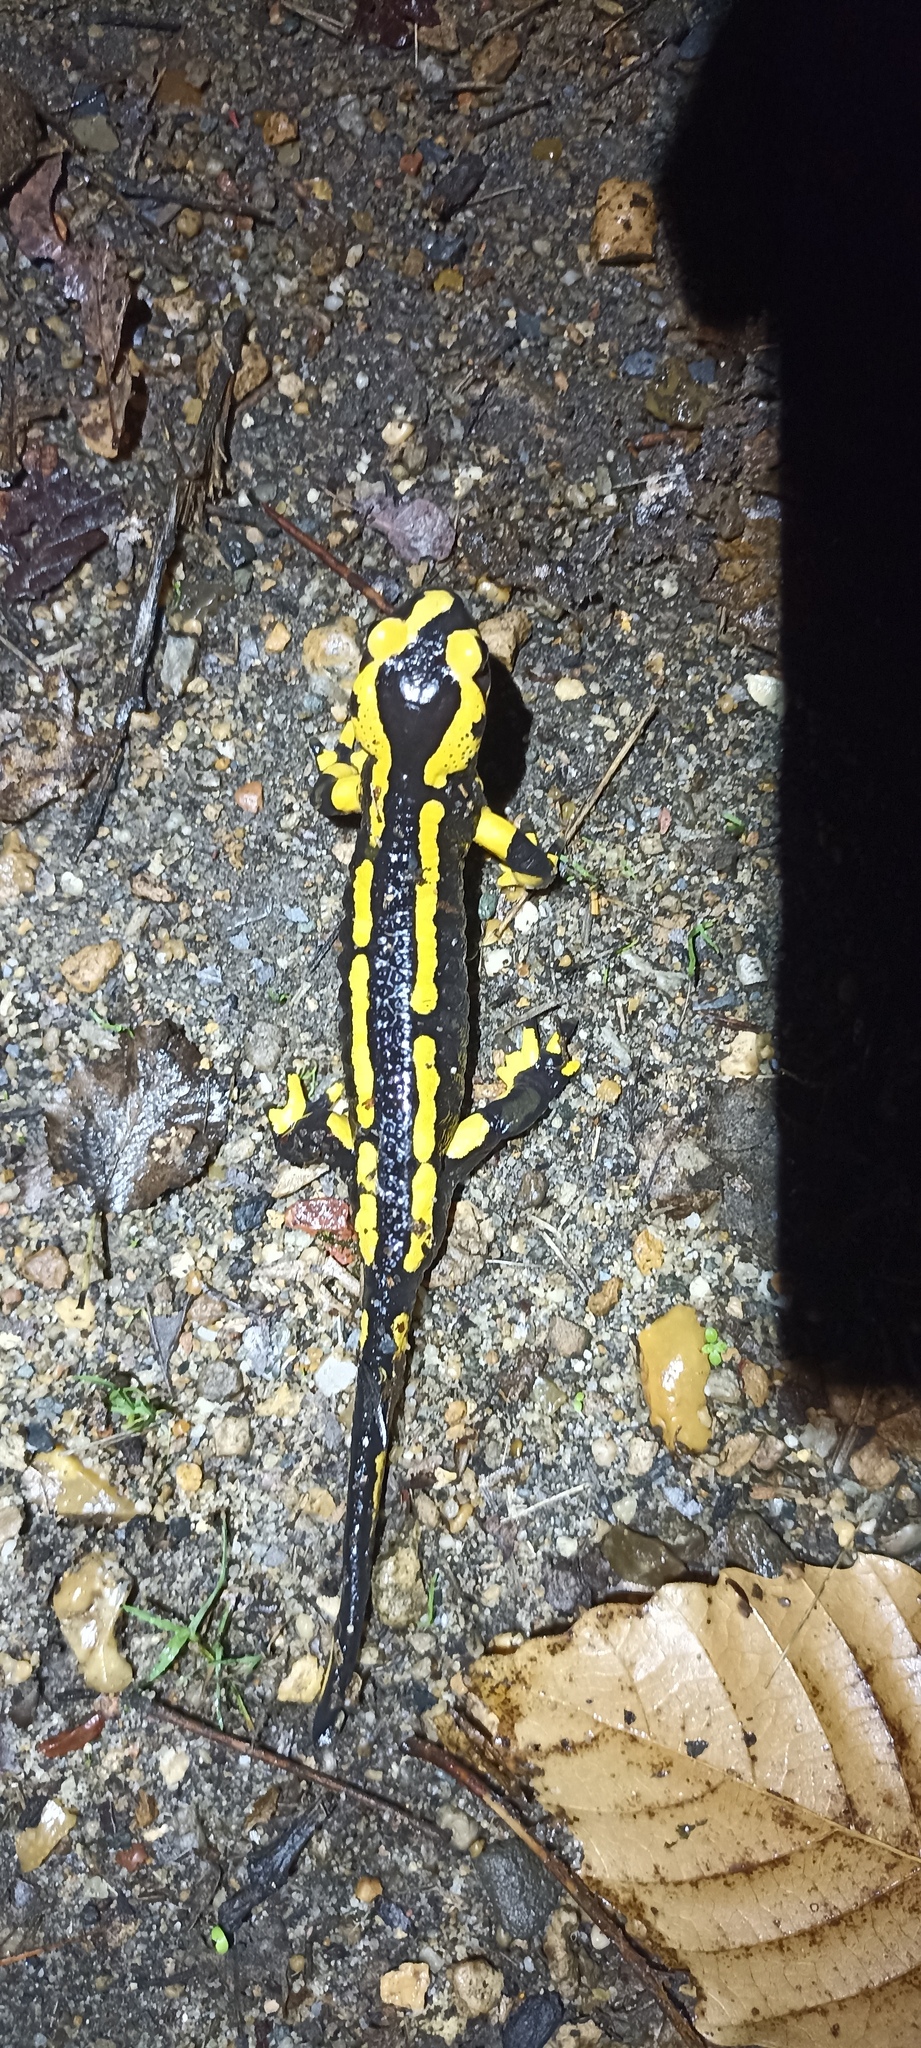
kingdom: Animalia
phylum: Chordata
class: Amphibia
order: Caudata
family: Salamandridae
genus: Salamandra
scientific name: Salamandra salamandra
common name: Fire salamander
